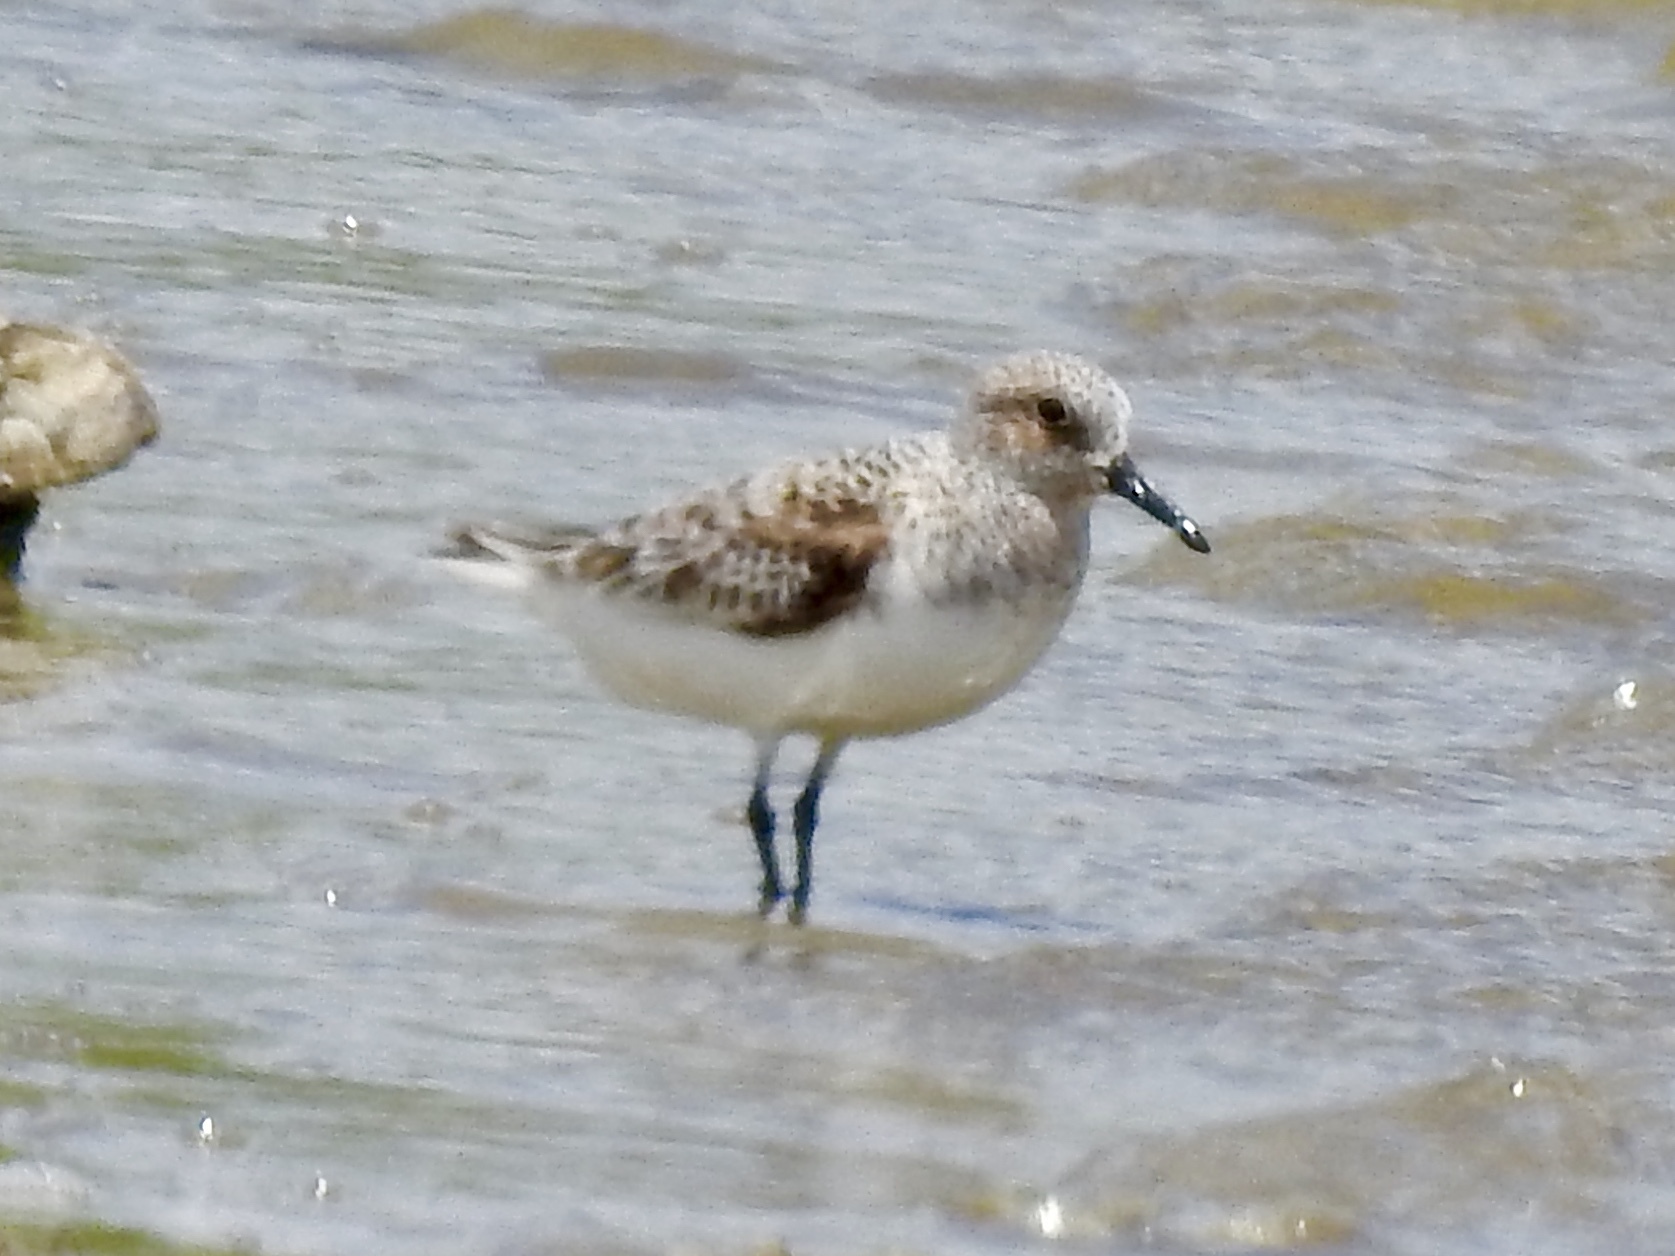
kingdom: Animalia
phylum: Chordata
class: Aves
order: Charadriiformes
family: Scolopacidae
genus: Calidris
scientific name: Calidris alba
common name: Sanderling
